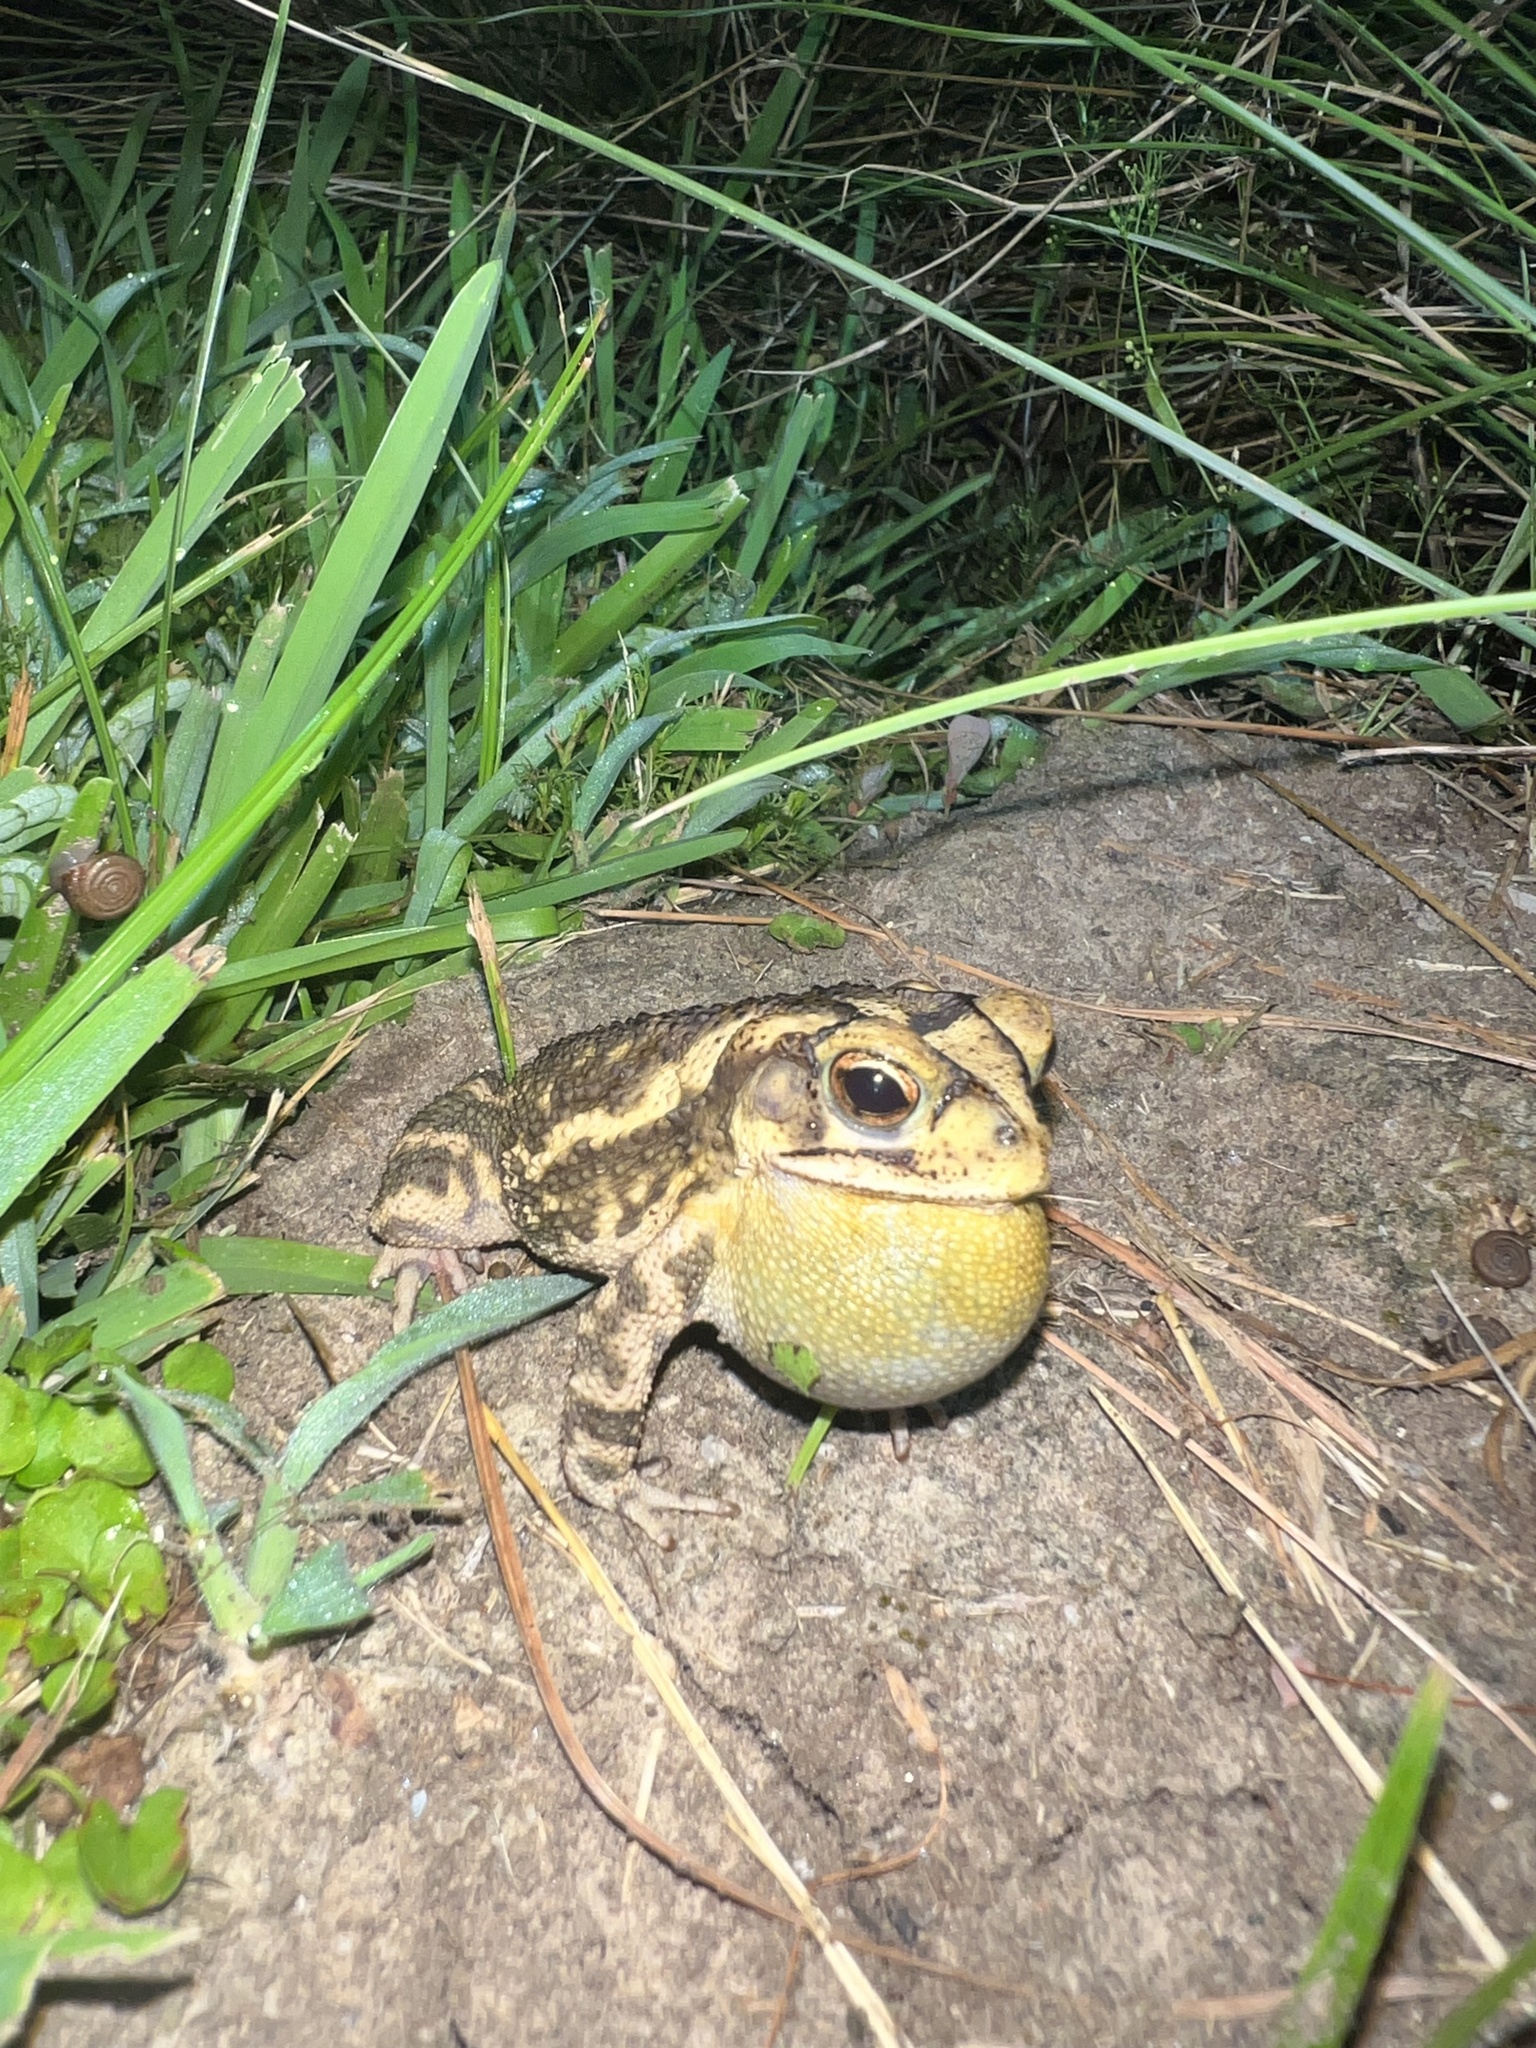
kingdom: Animalia
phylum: Chordata
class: Amphibia
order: Anura
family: Bufonidae
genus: Incilius
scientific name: Incilius nebulifer
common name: Gulf coast toad
